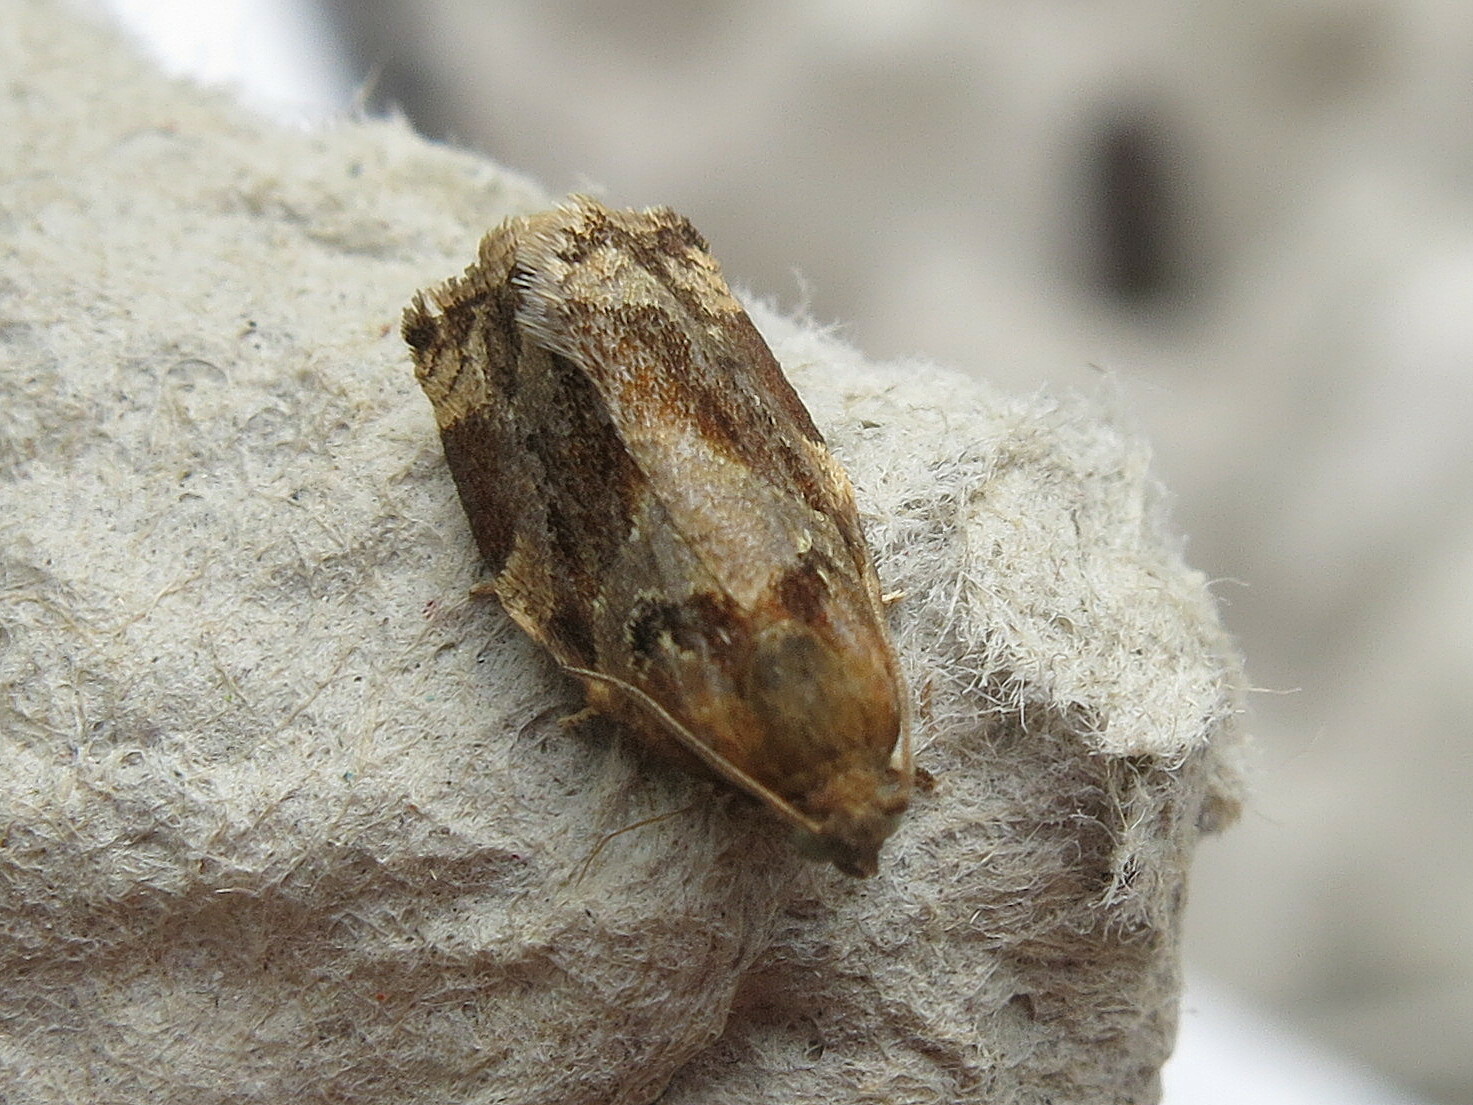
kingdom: Animalia
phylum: Arthropoda
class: Insecta
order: Lepidoptera
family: Tortricidae
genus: Archips
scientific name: Archips xylosteana
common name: Variegated golden tortrix
